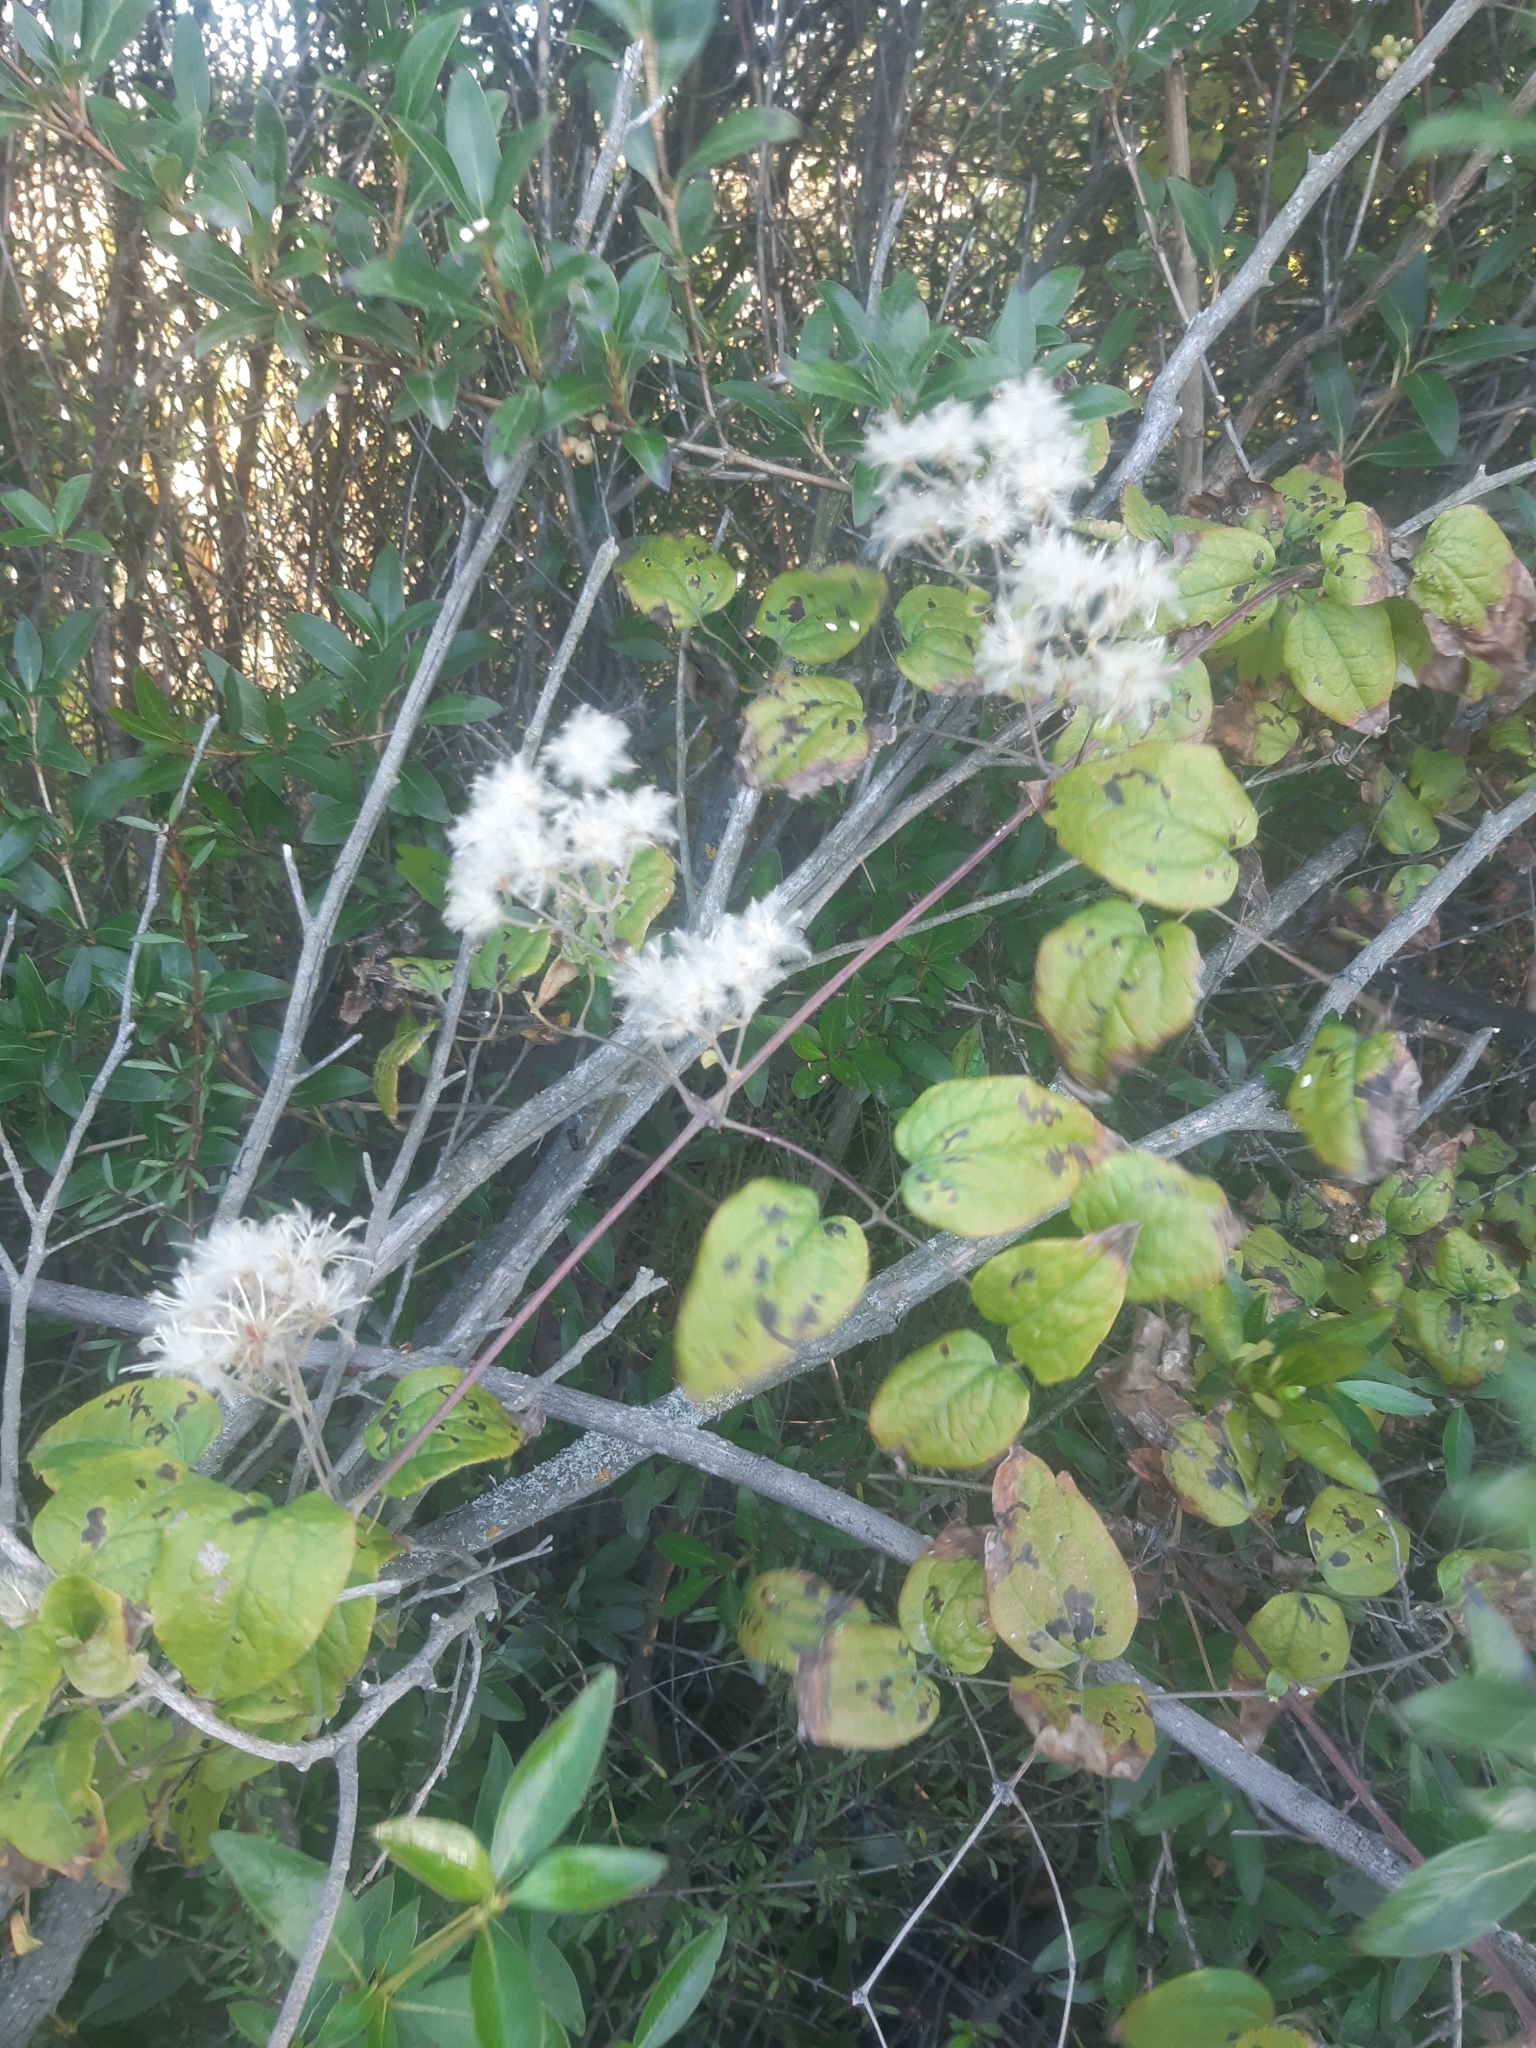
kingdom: Plantae
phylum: Tracheophyta
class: Magnoliopsida
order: Ranunculales
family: Ranunculaceae
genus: Clematis
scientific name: Clematis vitalba
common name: Evergreen clematis
